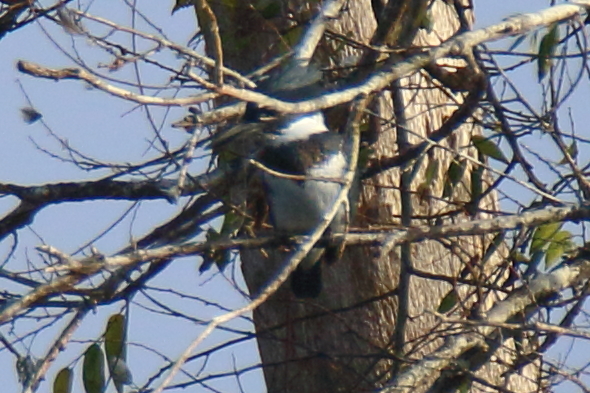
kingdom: Animalia
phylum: Chordata
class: Aves
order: Coraciiformes
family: Alcedinidae
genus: Megaceryle
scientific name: Megaceryle alcyon
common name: Belted kingfisher
